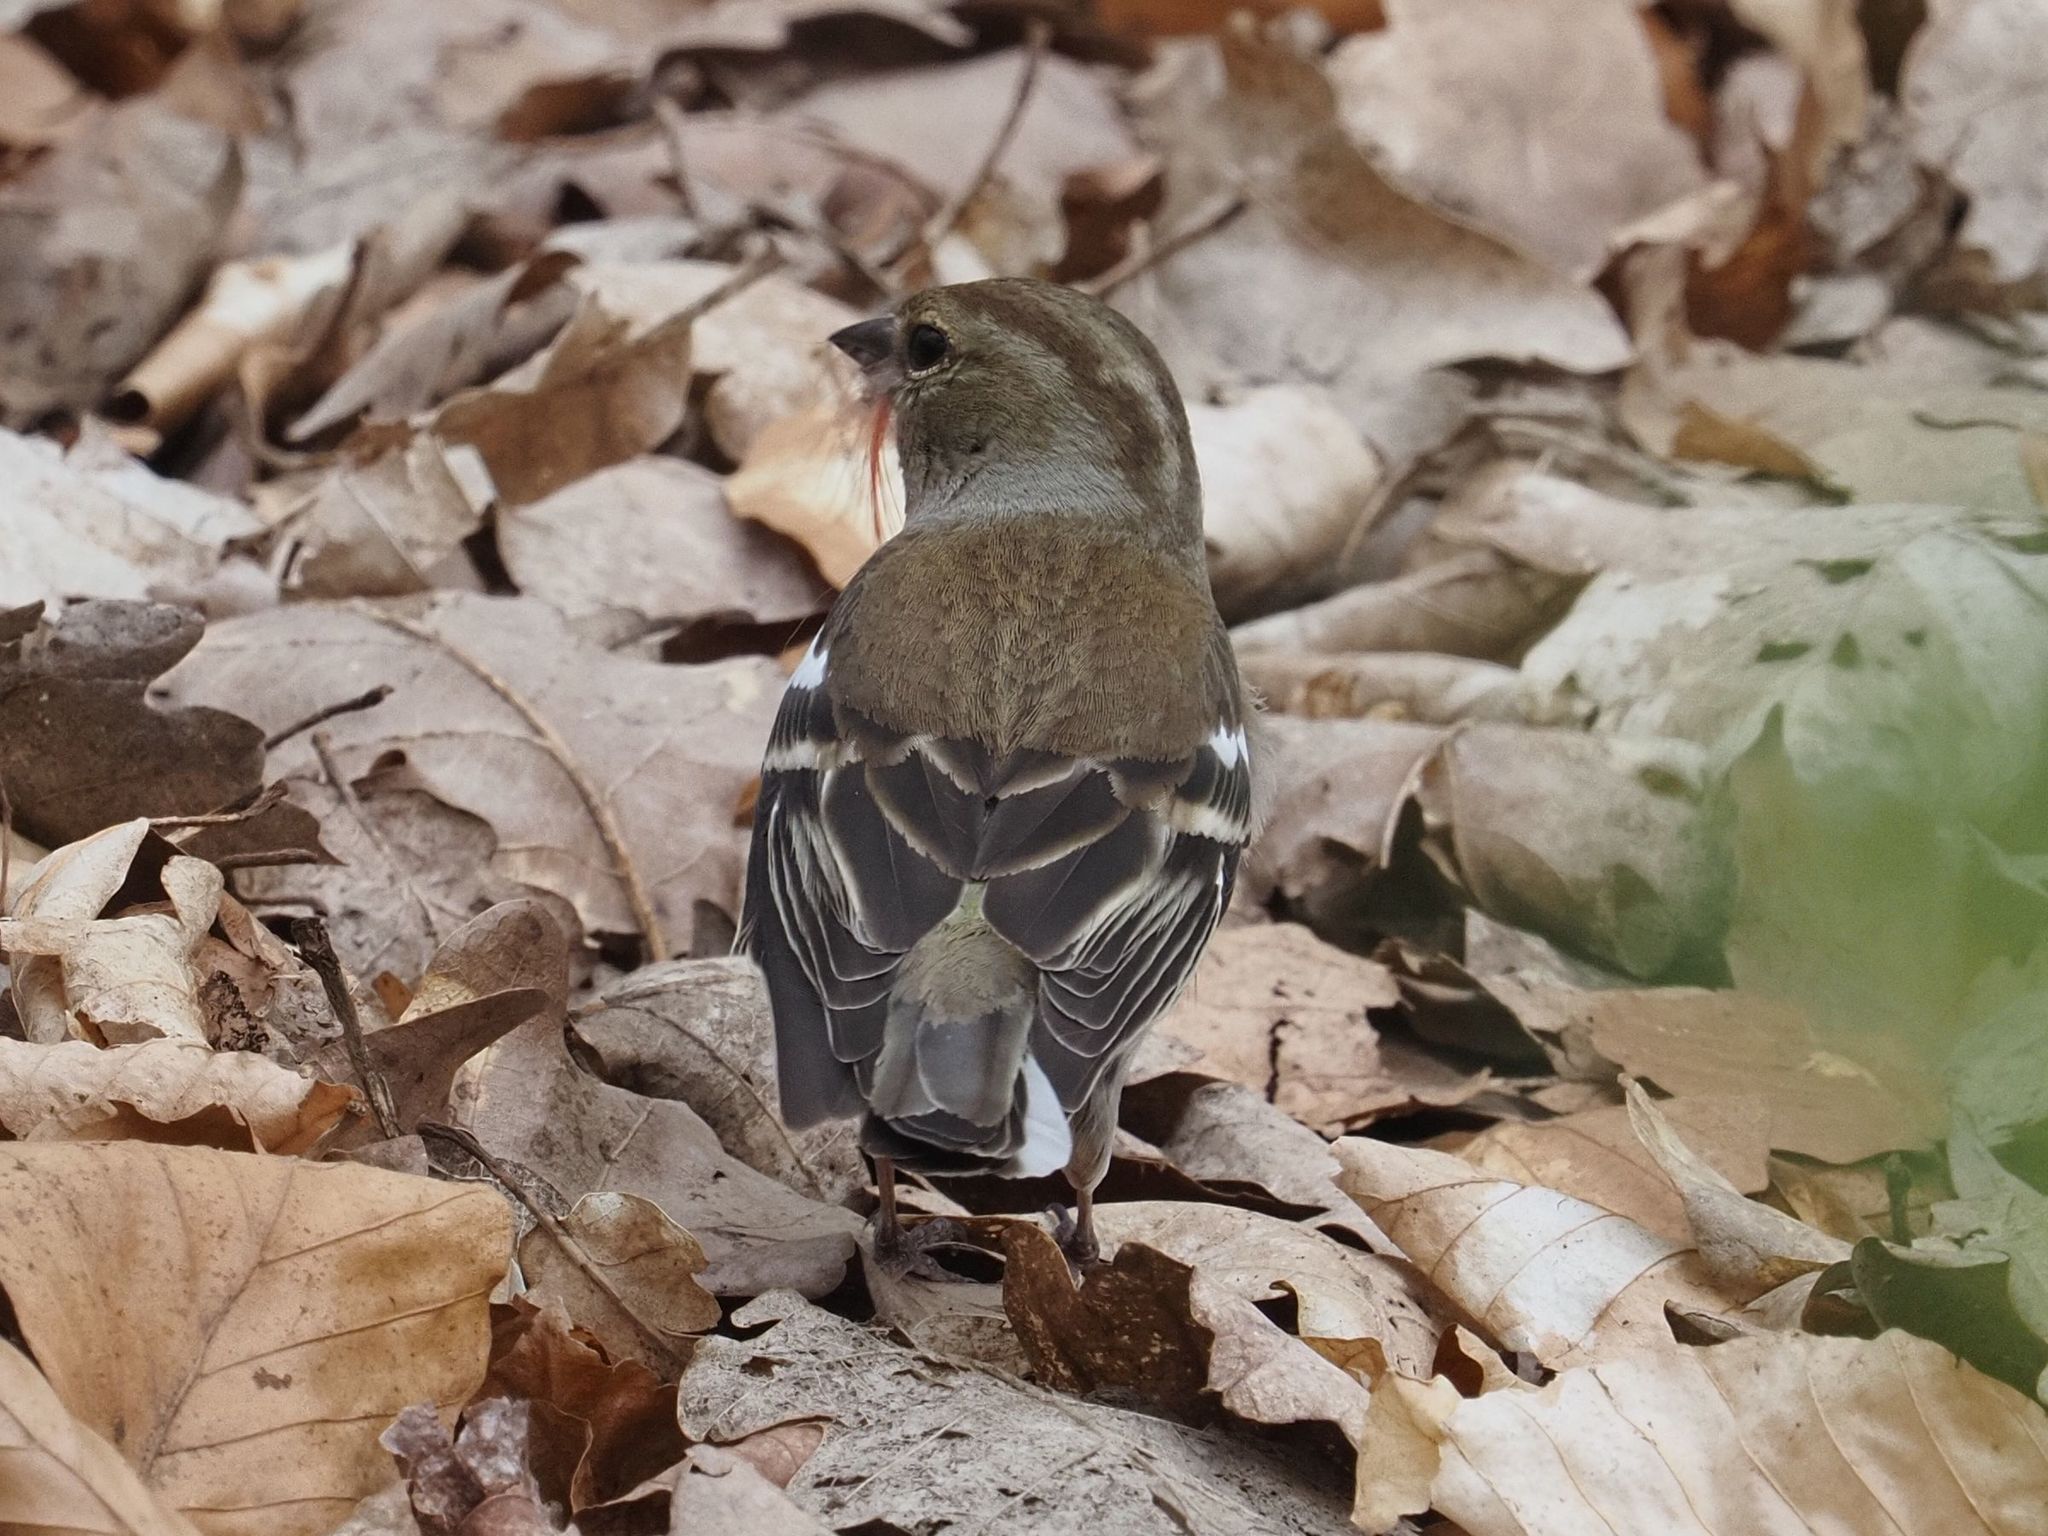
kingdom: Animalia
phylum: Chordata
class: Aves
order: Passeriformes
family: Fringillidae
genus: Fringilla
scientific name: Fringilla coelebs
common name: Common chaffinch
